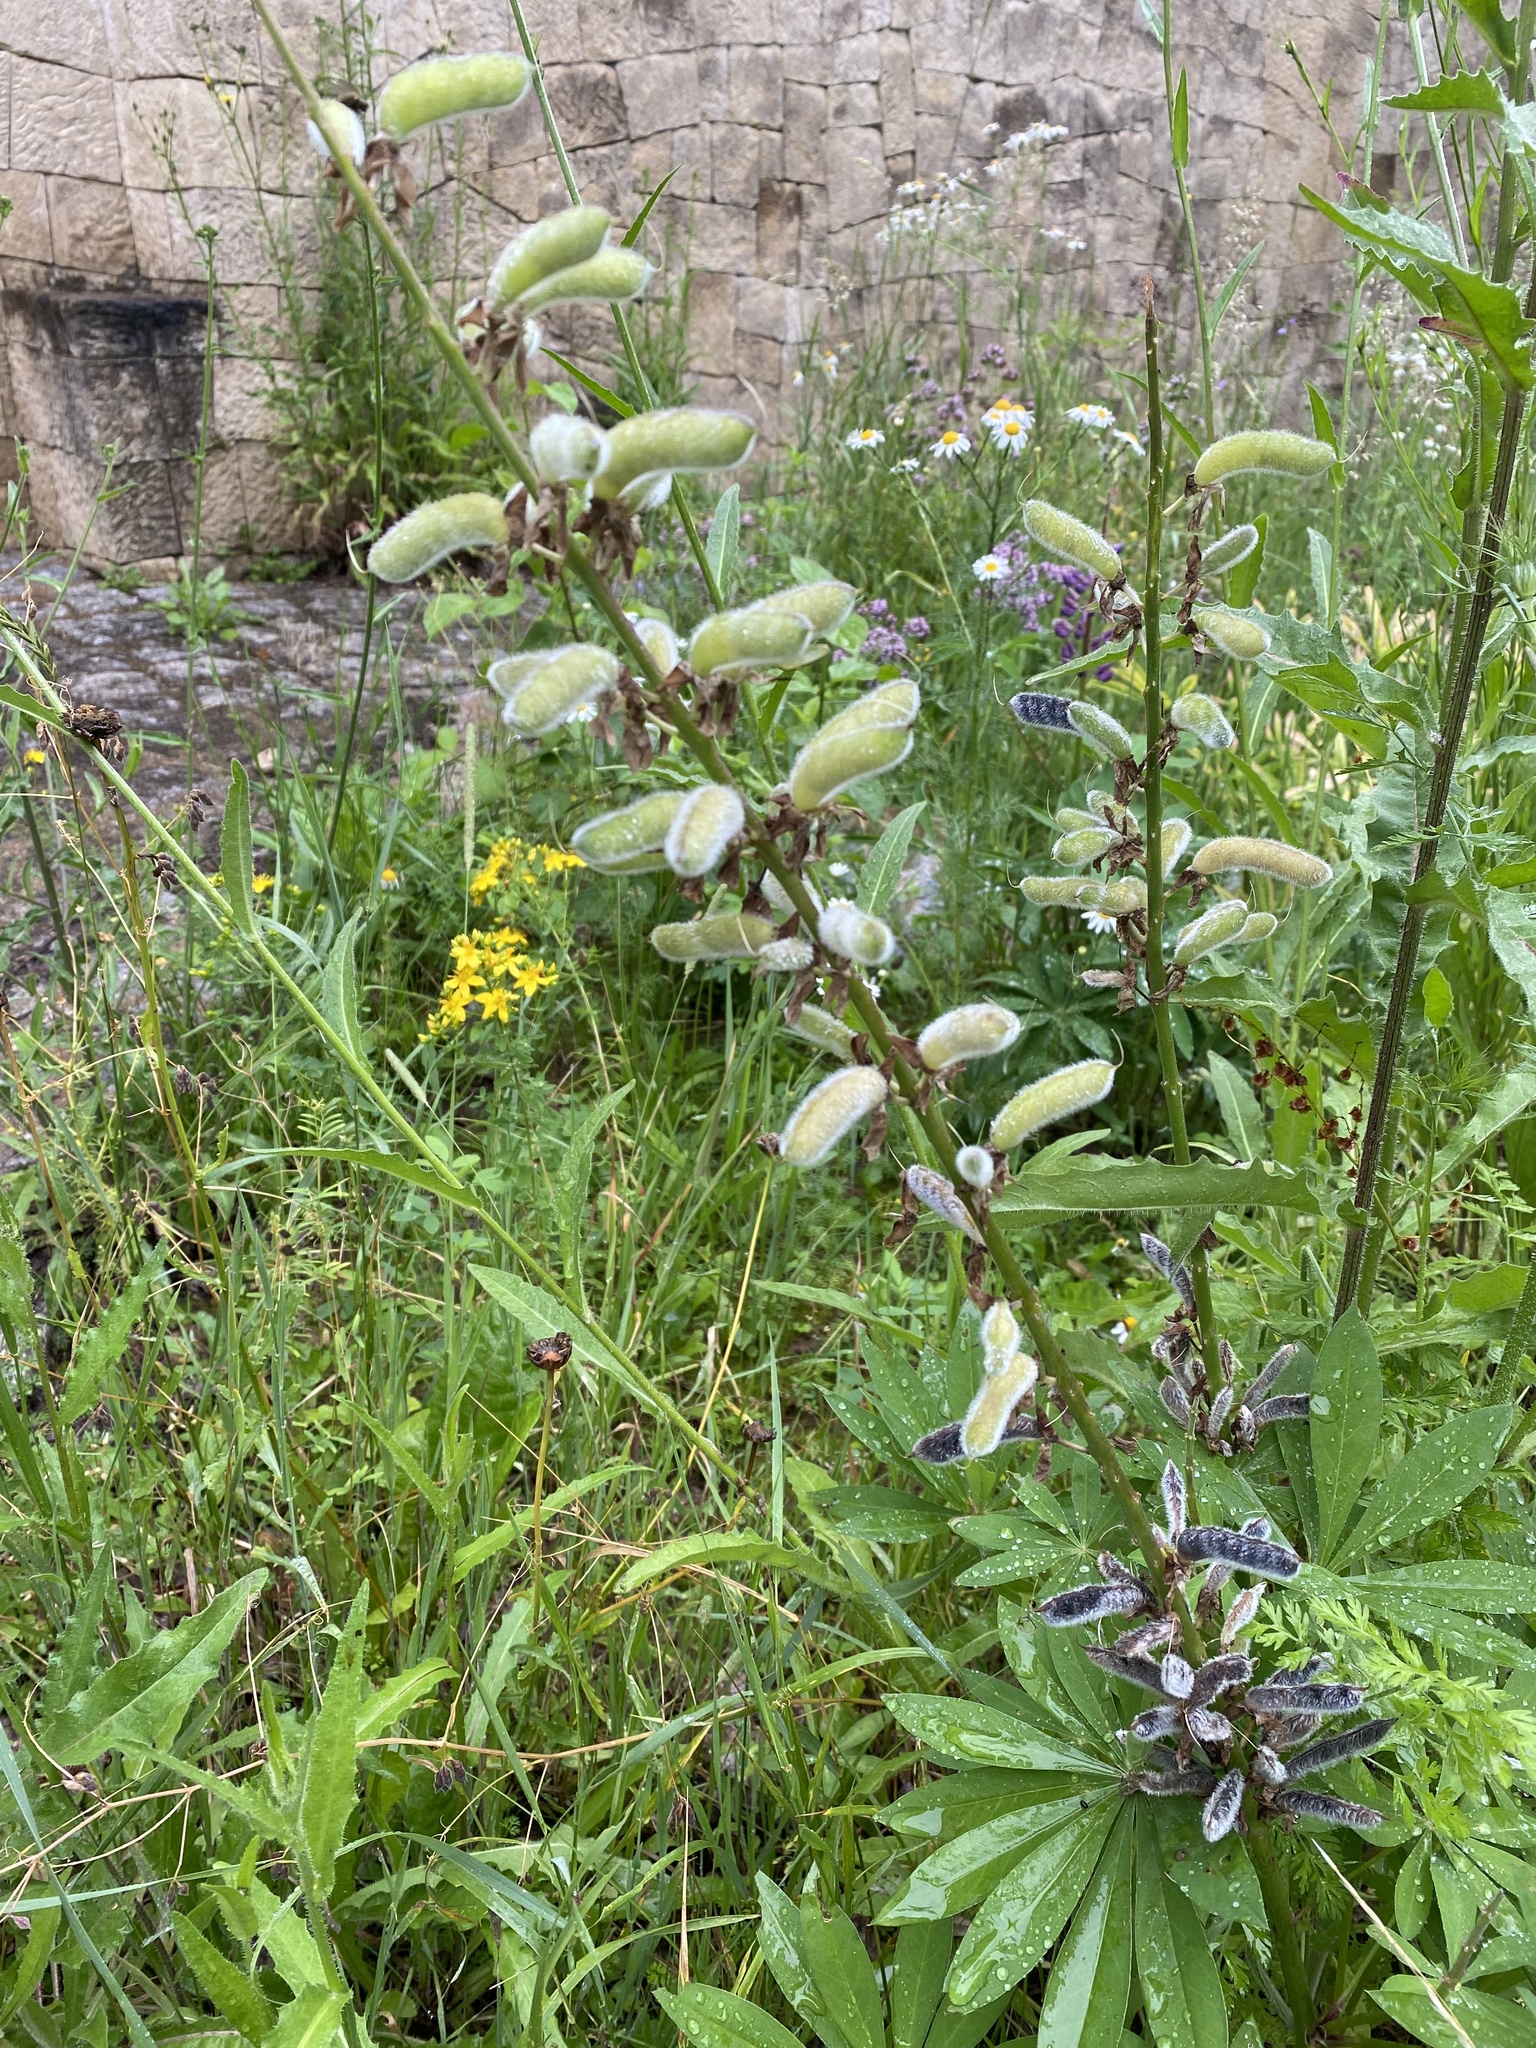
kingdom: Plantae
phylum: Tracheophyta
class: Magnoliopsida
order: Fabales
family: Fabaceae
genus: Lupinus
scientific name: Lupinus polyphyllus
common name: Garden lupin
